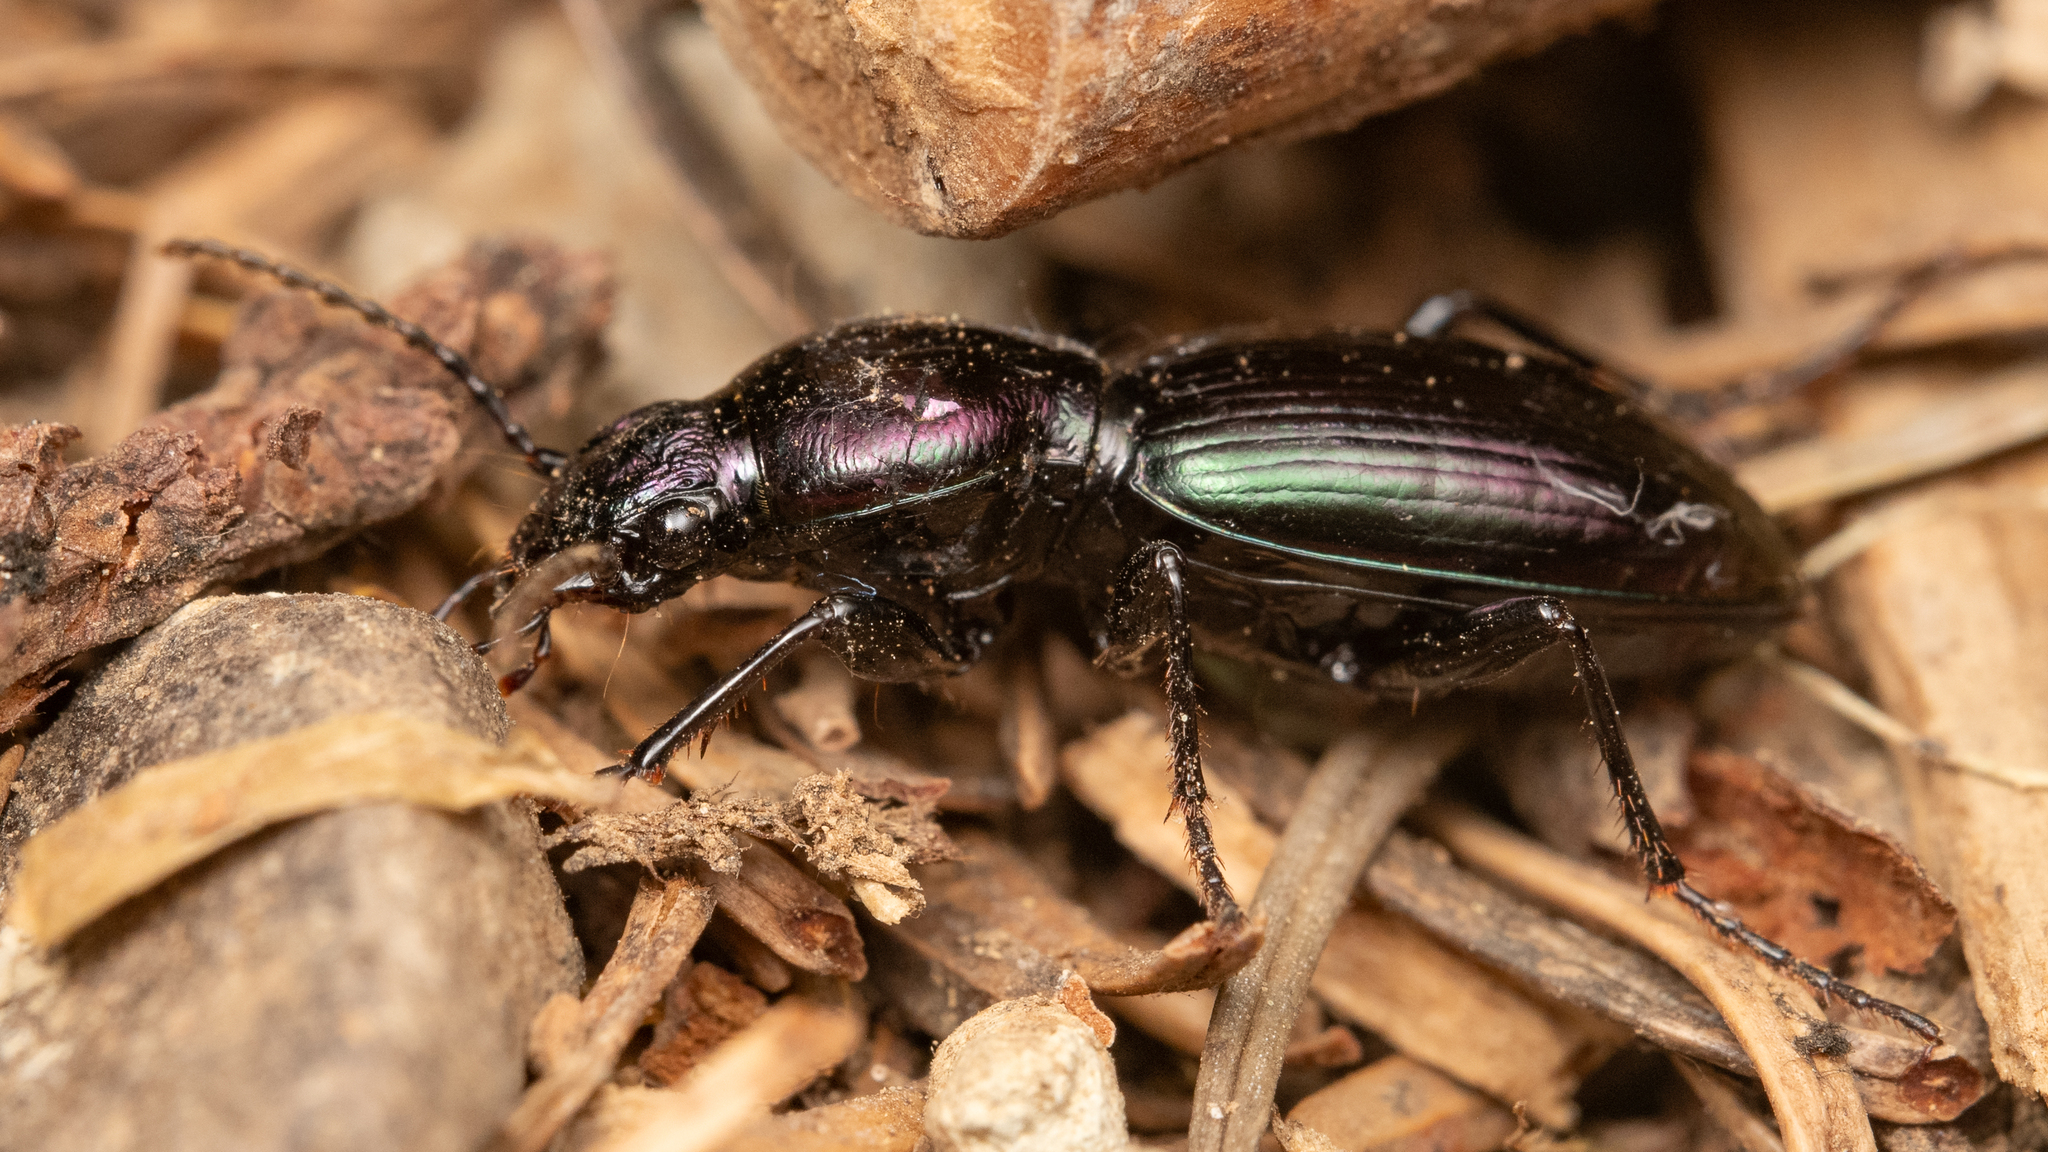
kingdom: Animalia
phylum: Arthropoda
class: Insecta
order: Coleoptera
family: Carabidae
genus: Zacotus
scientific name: Zacotus matthewsii
